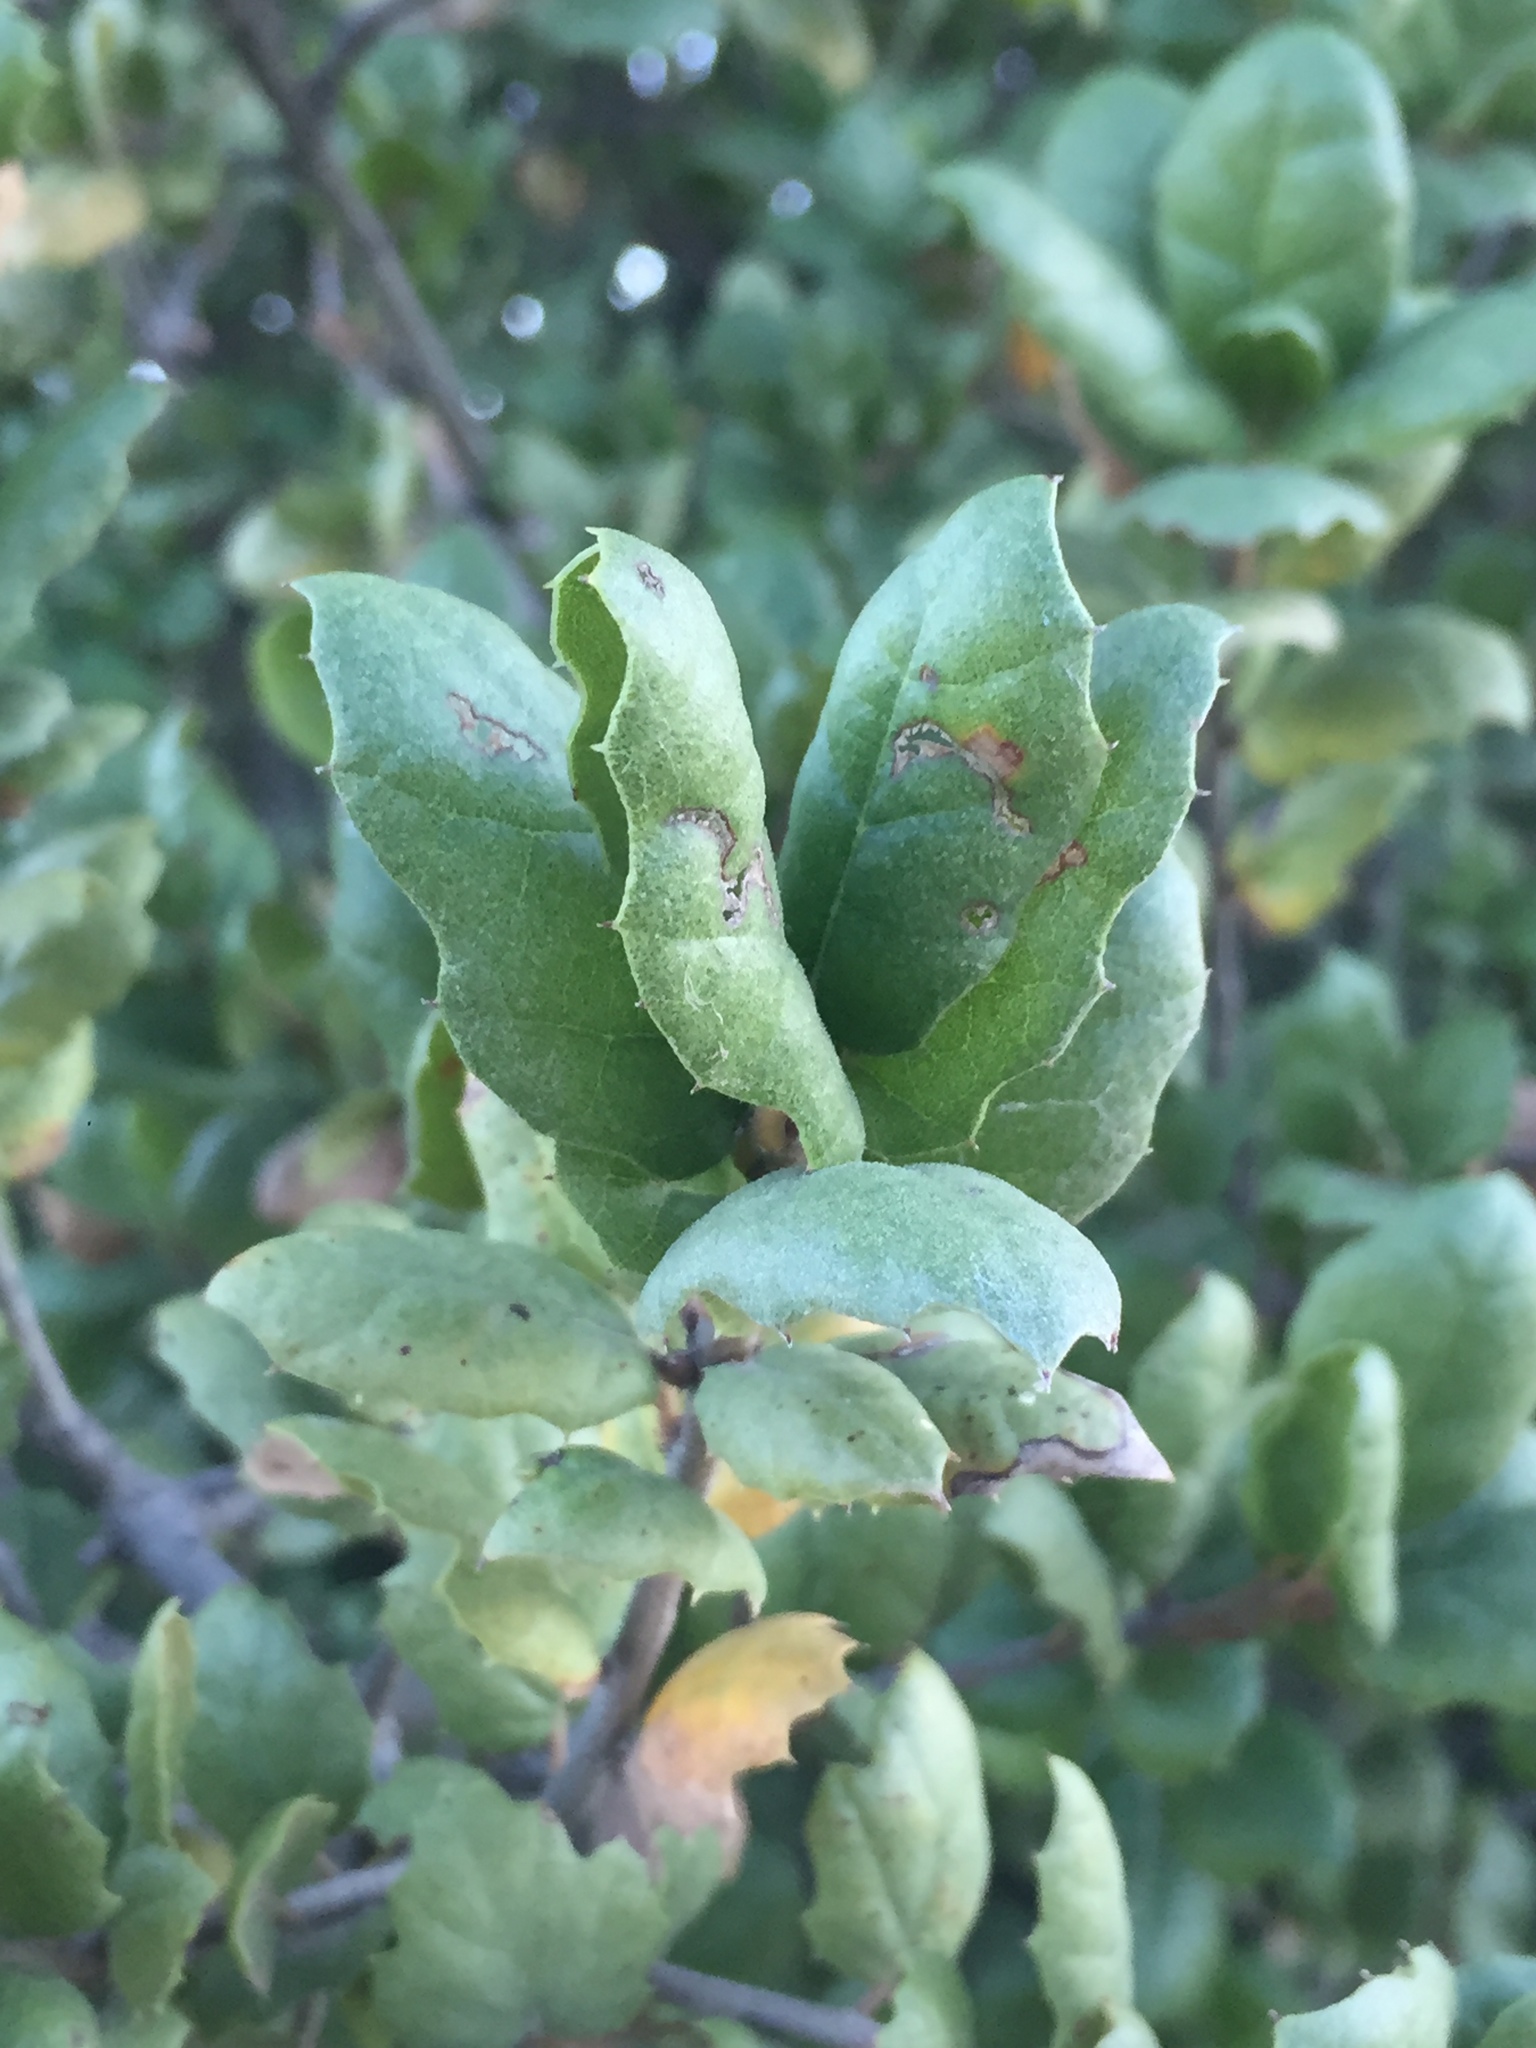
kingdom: Plantae
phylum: Tracheophyta
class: Magnoliopsida
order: Fagales
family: Fagaceae
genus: Quercus
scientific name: Quercus agrifolia
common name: California live oak
